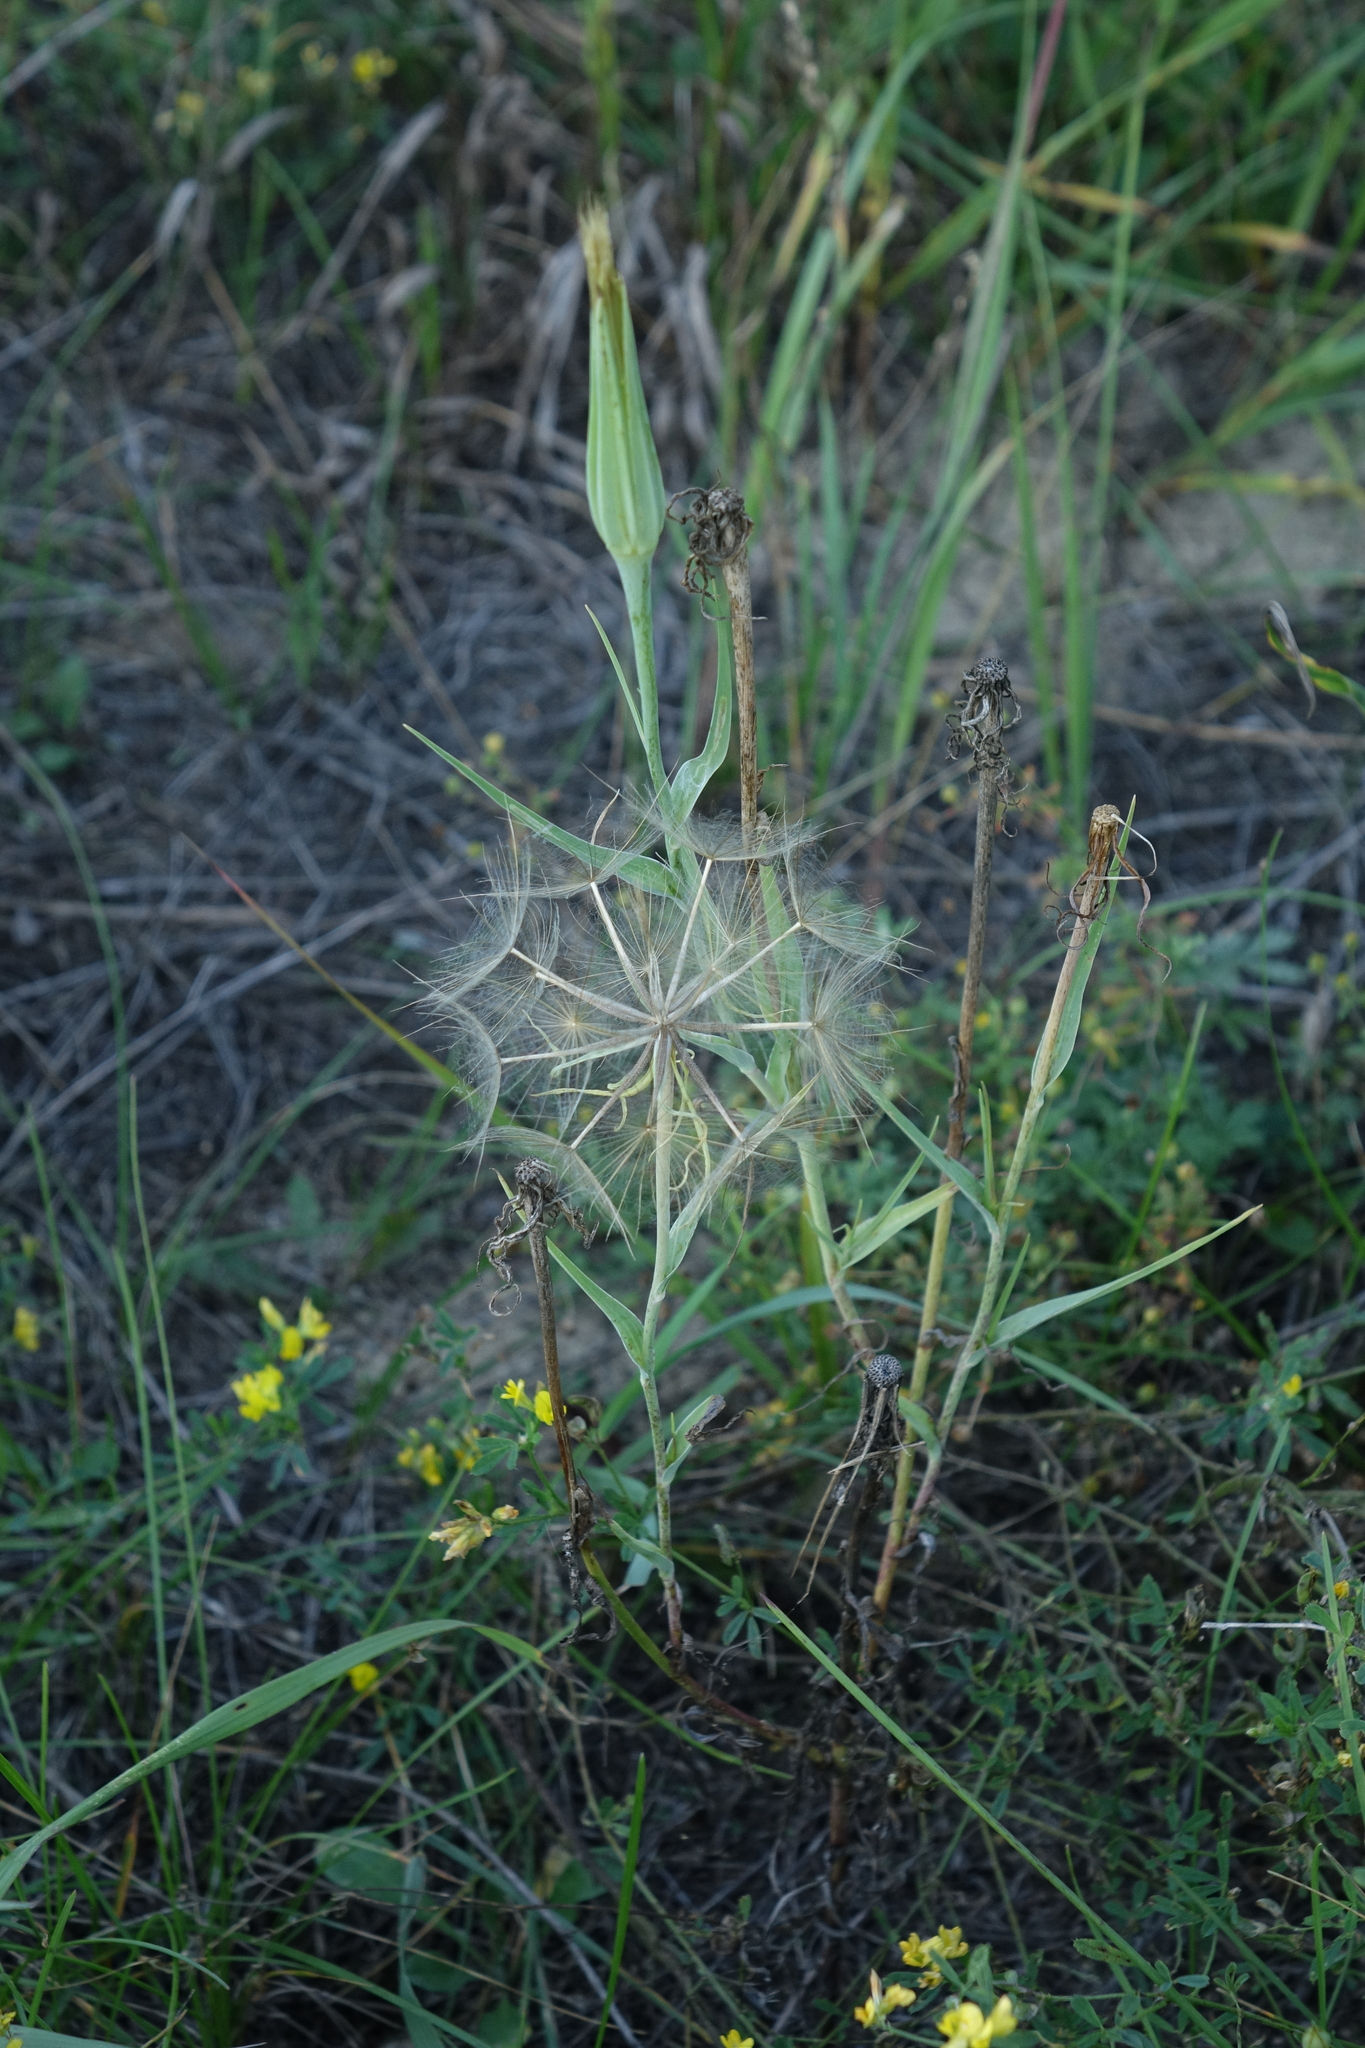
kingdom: Plantae
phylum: Tracheophyta
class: Magnoliopsida
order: Asterales
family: Asteraceae
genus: Tragopogon
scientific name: Tragopogon dubius
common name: Yellow salsify
